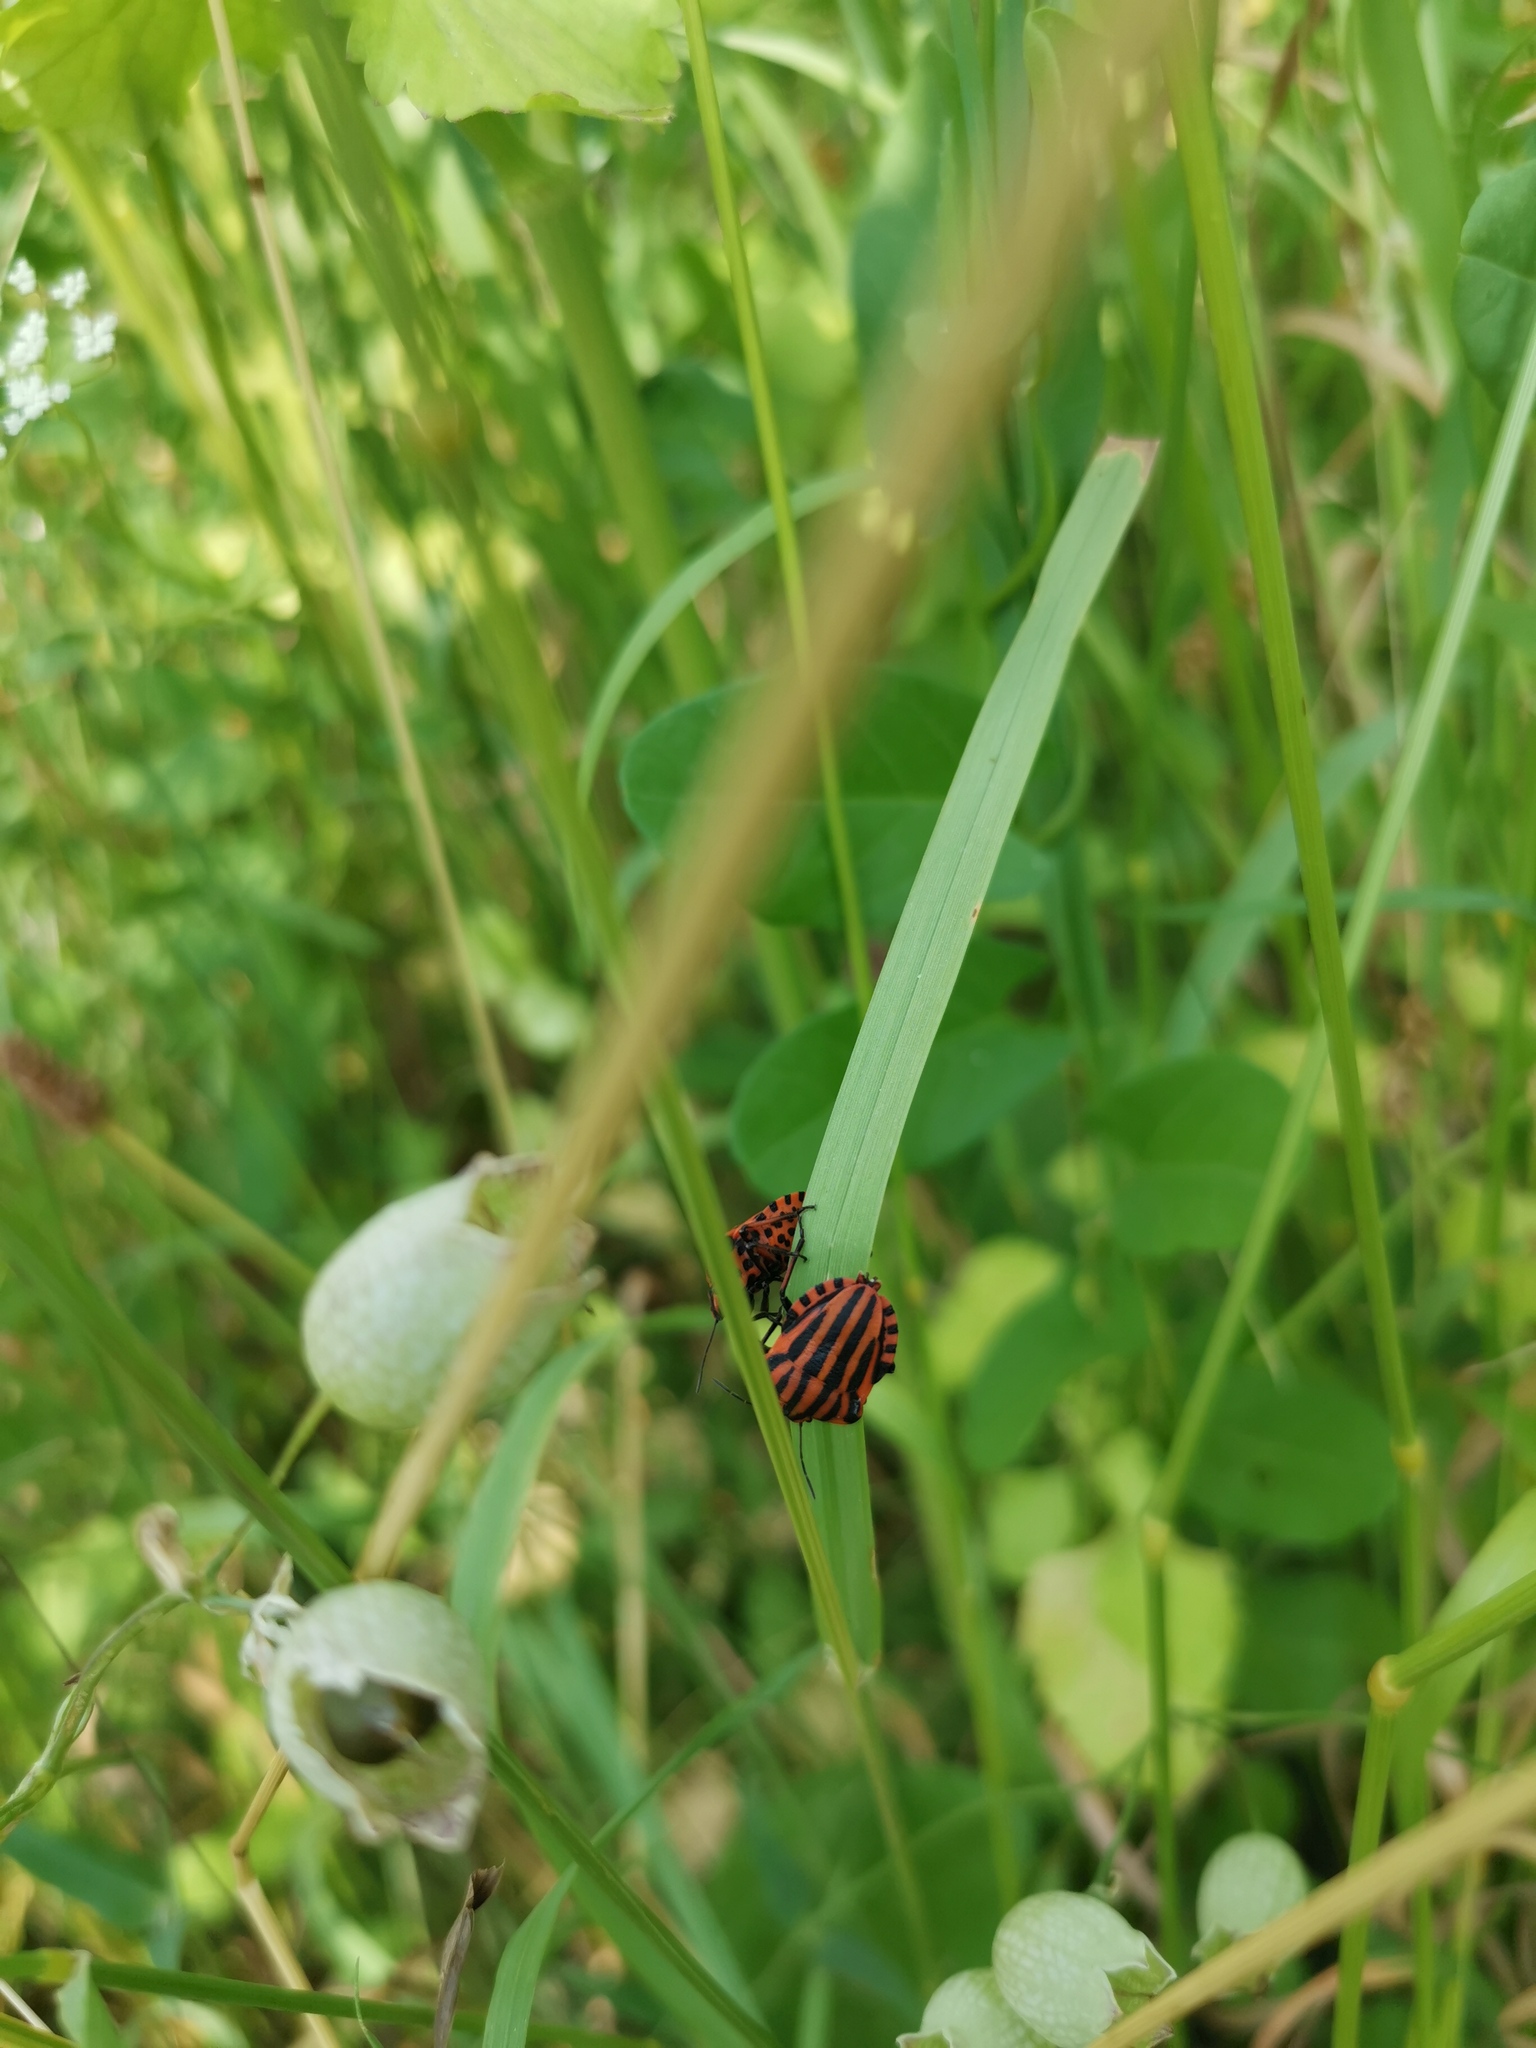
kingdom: Animalia
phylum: Arthropoda
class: Insecta
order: Hemiptera
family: Pentatomidae
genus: Graphosoma
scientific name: Graphosoma italicum
